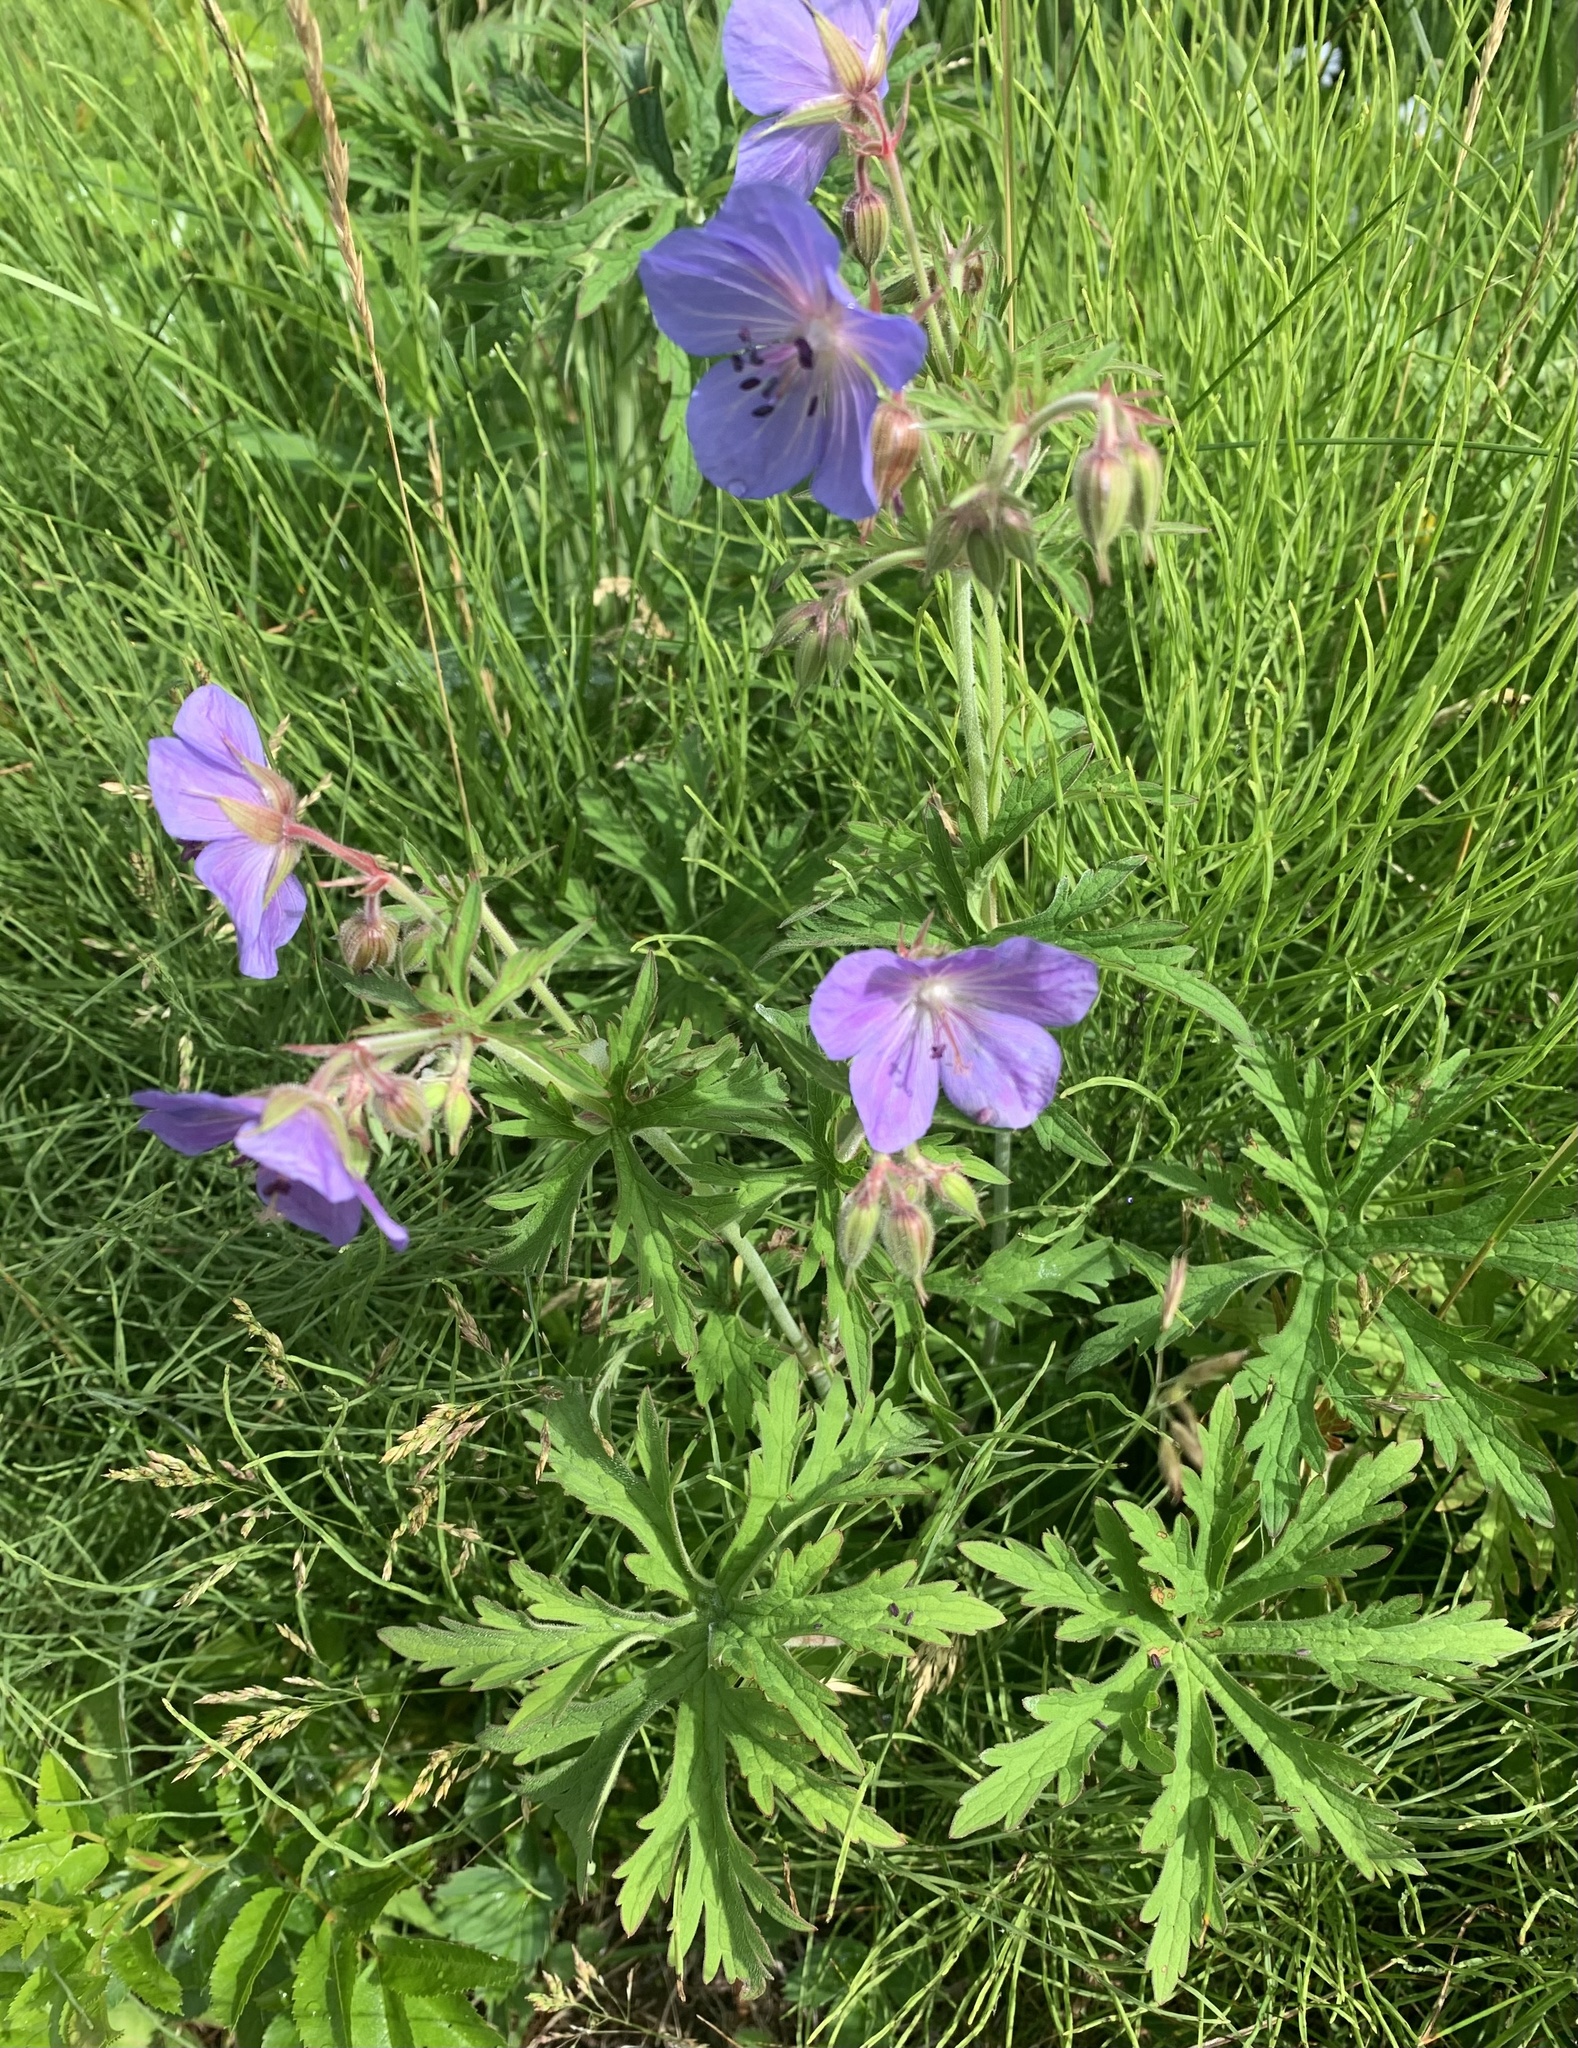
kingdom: Plantae
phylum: Tracheophyta
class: Magnoliopsida
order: Geraniales
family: Geraniaceae
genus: Geranium
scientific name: Geranium pratense
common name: Meadow crane's-bill
